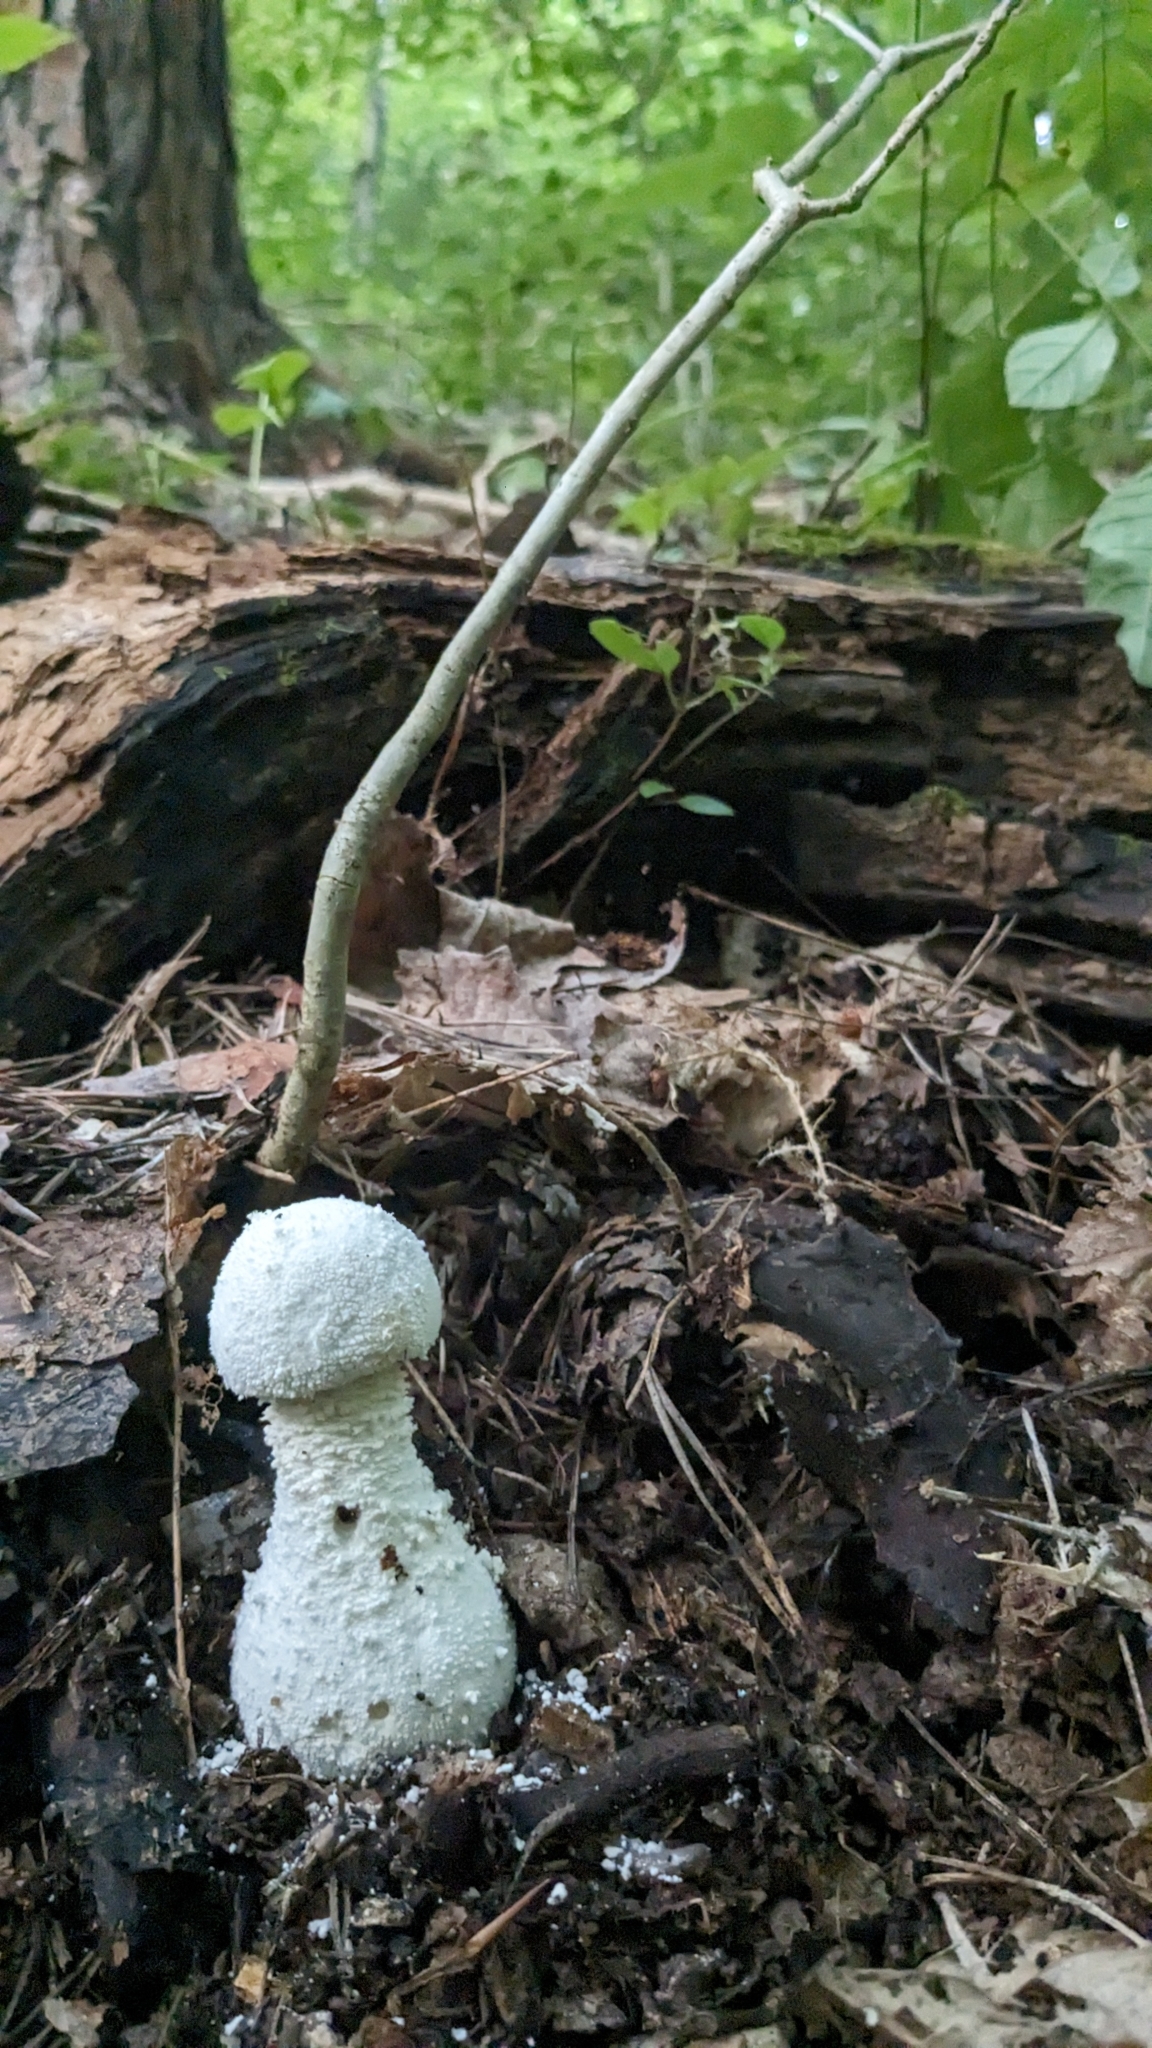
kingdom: Fungi
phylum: Basidiomycota
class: Agaricomycetes
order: Agaricales
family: Amanitaceae
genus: Amanita
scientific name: Amanita polypyramis
